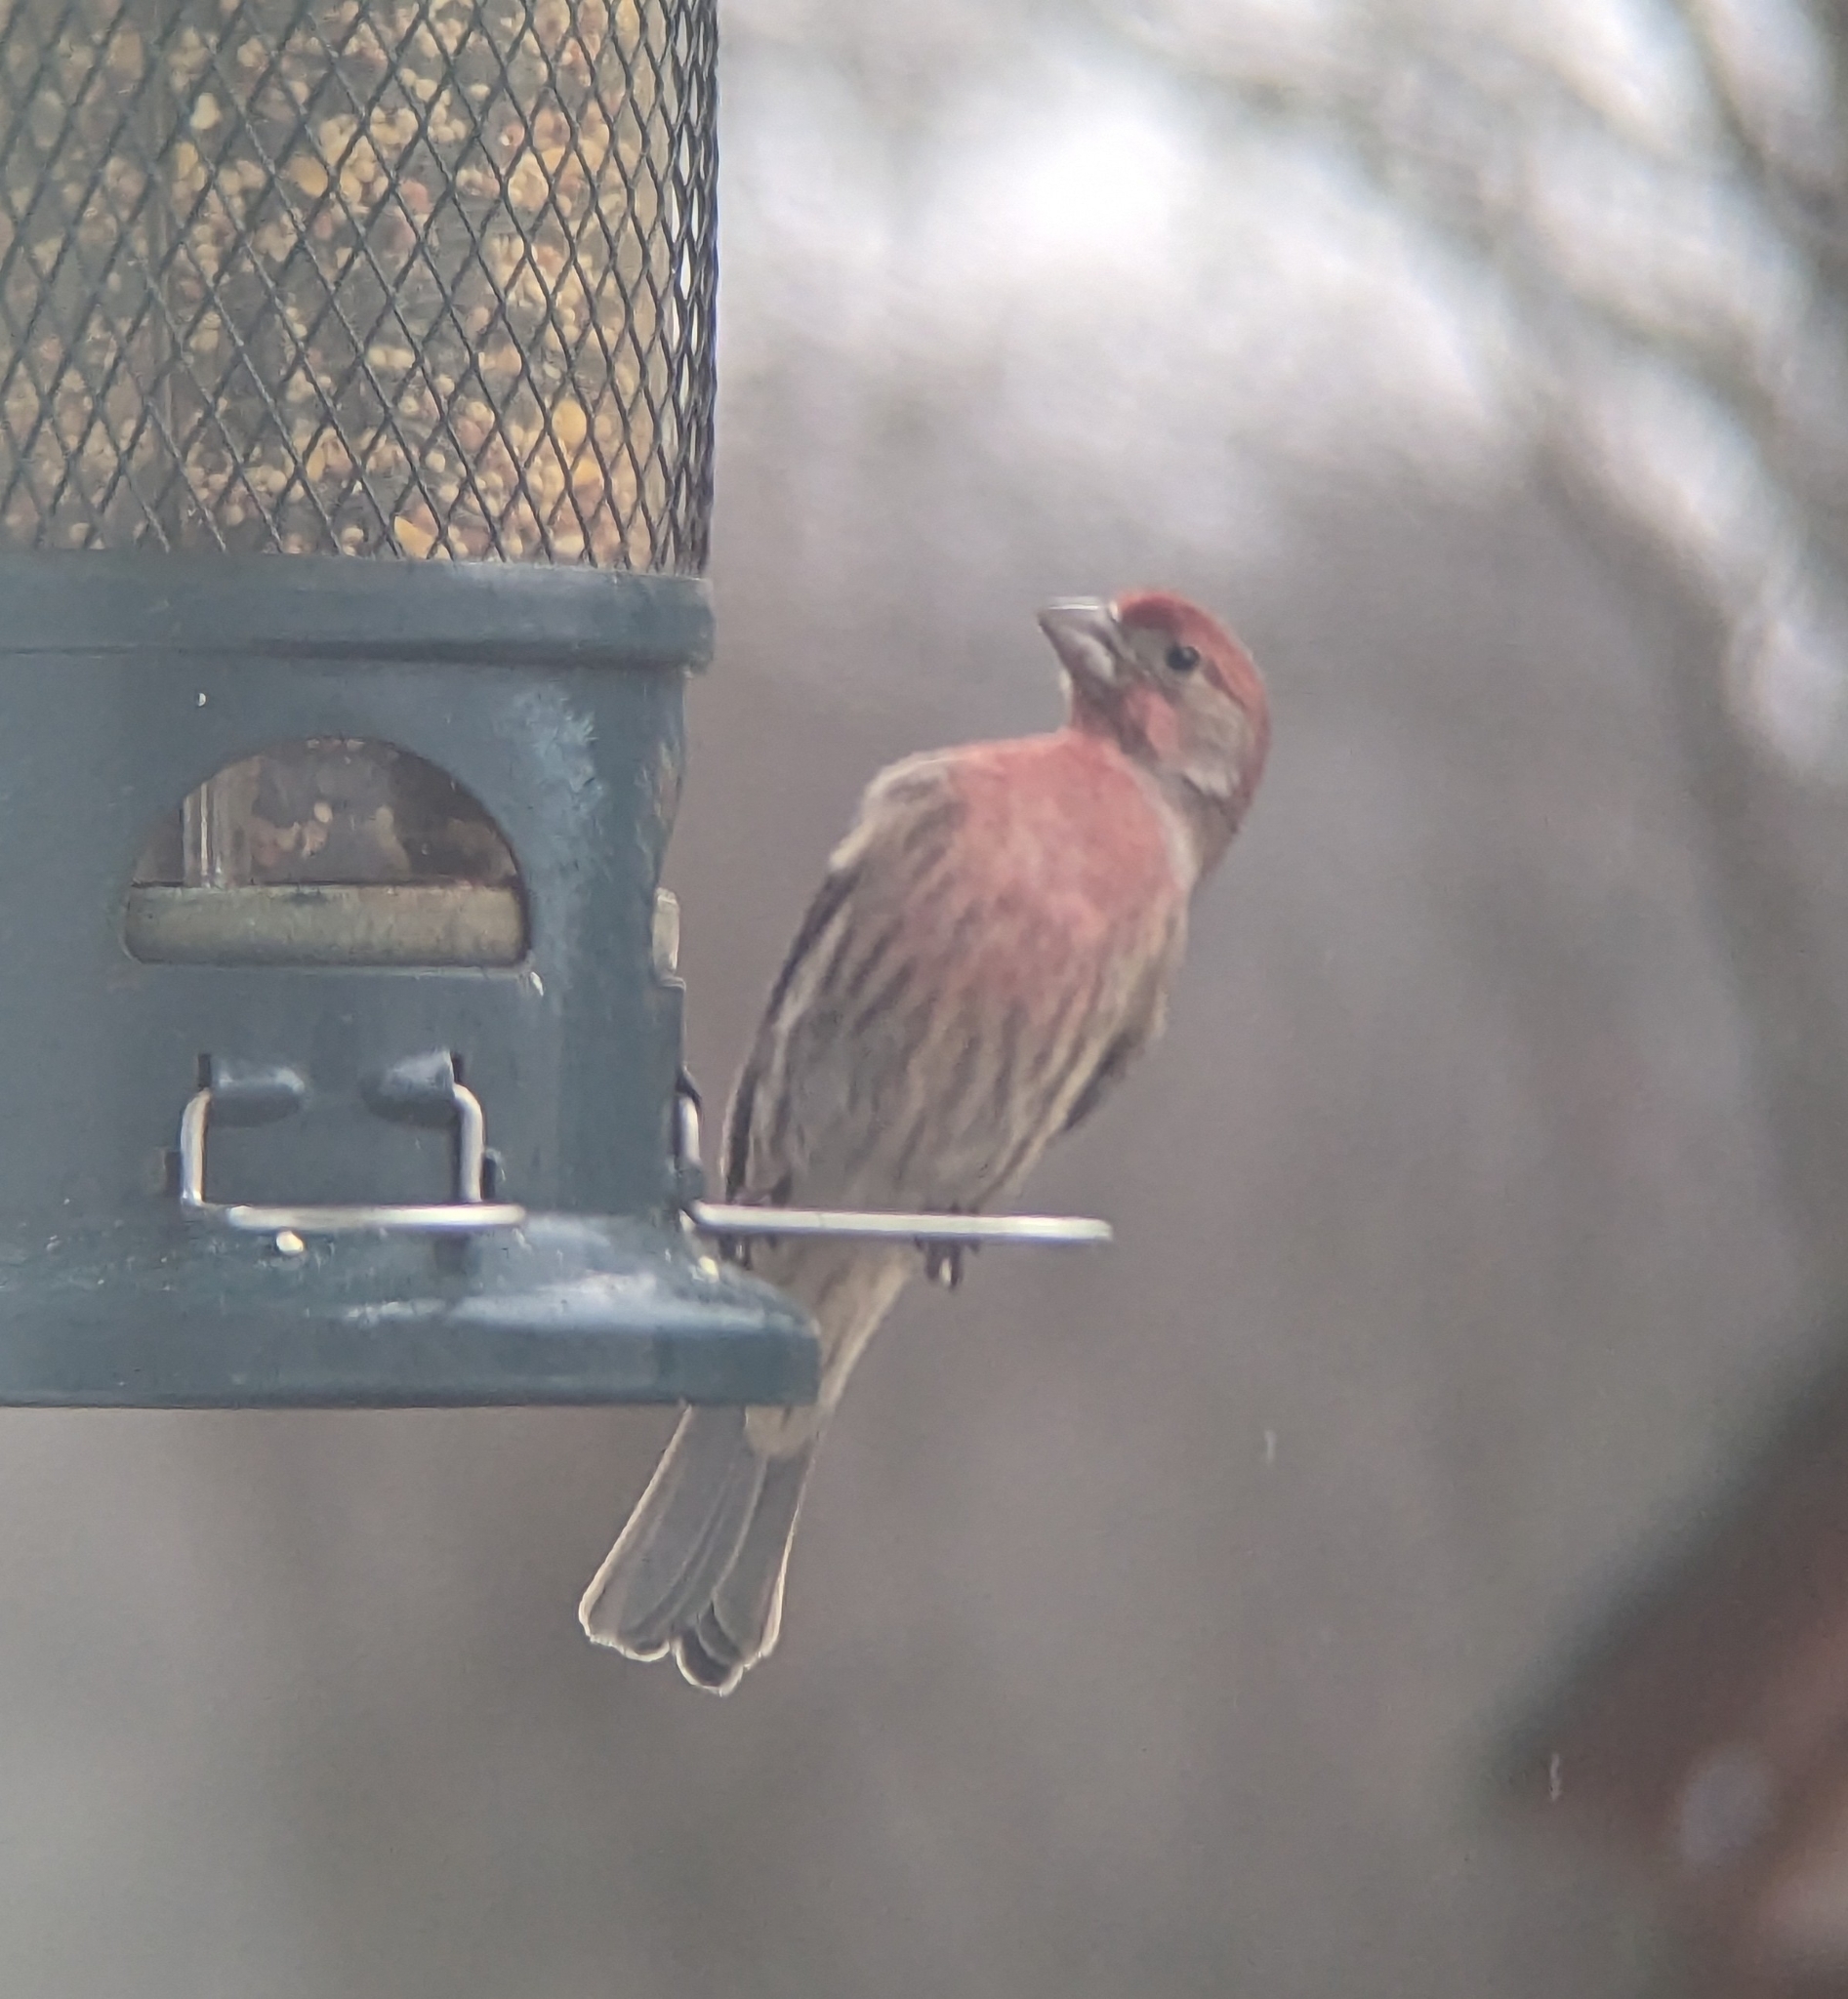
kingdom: Animalia
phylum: Chordata
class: Aves
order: Passeriformes
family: Fringillidae
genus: Haemorhous
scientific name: Haemorhous mexicanus
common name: House finch
